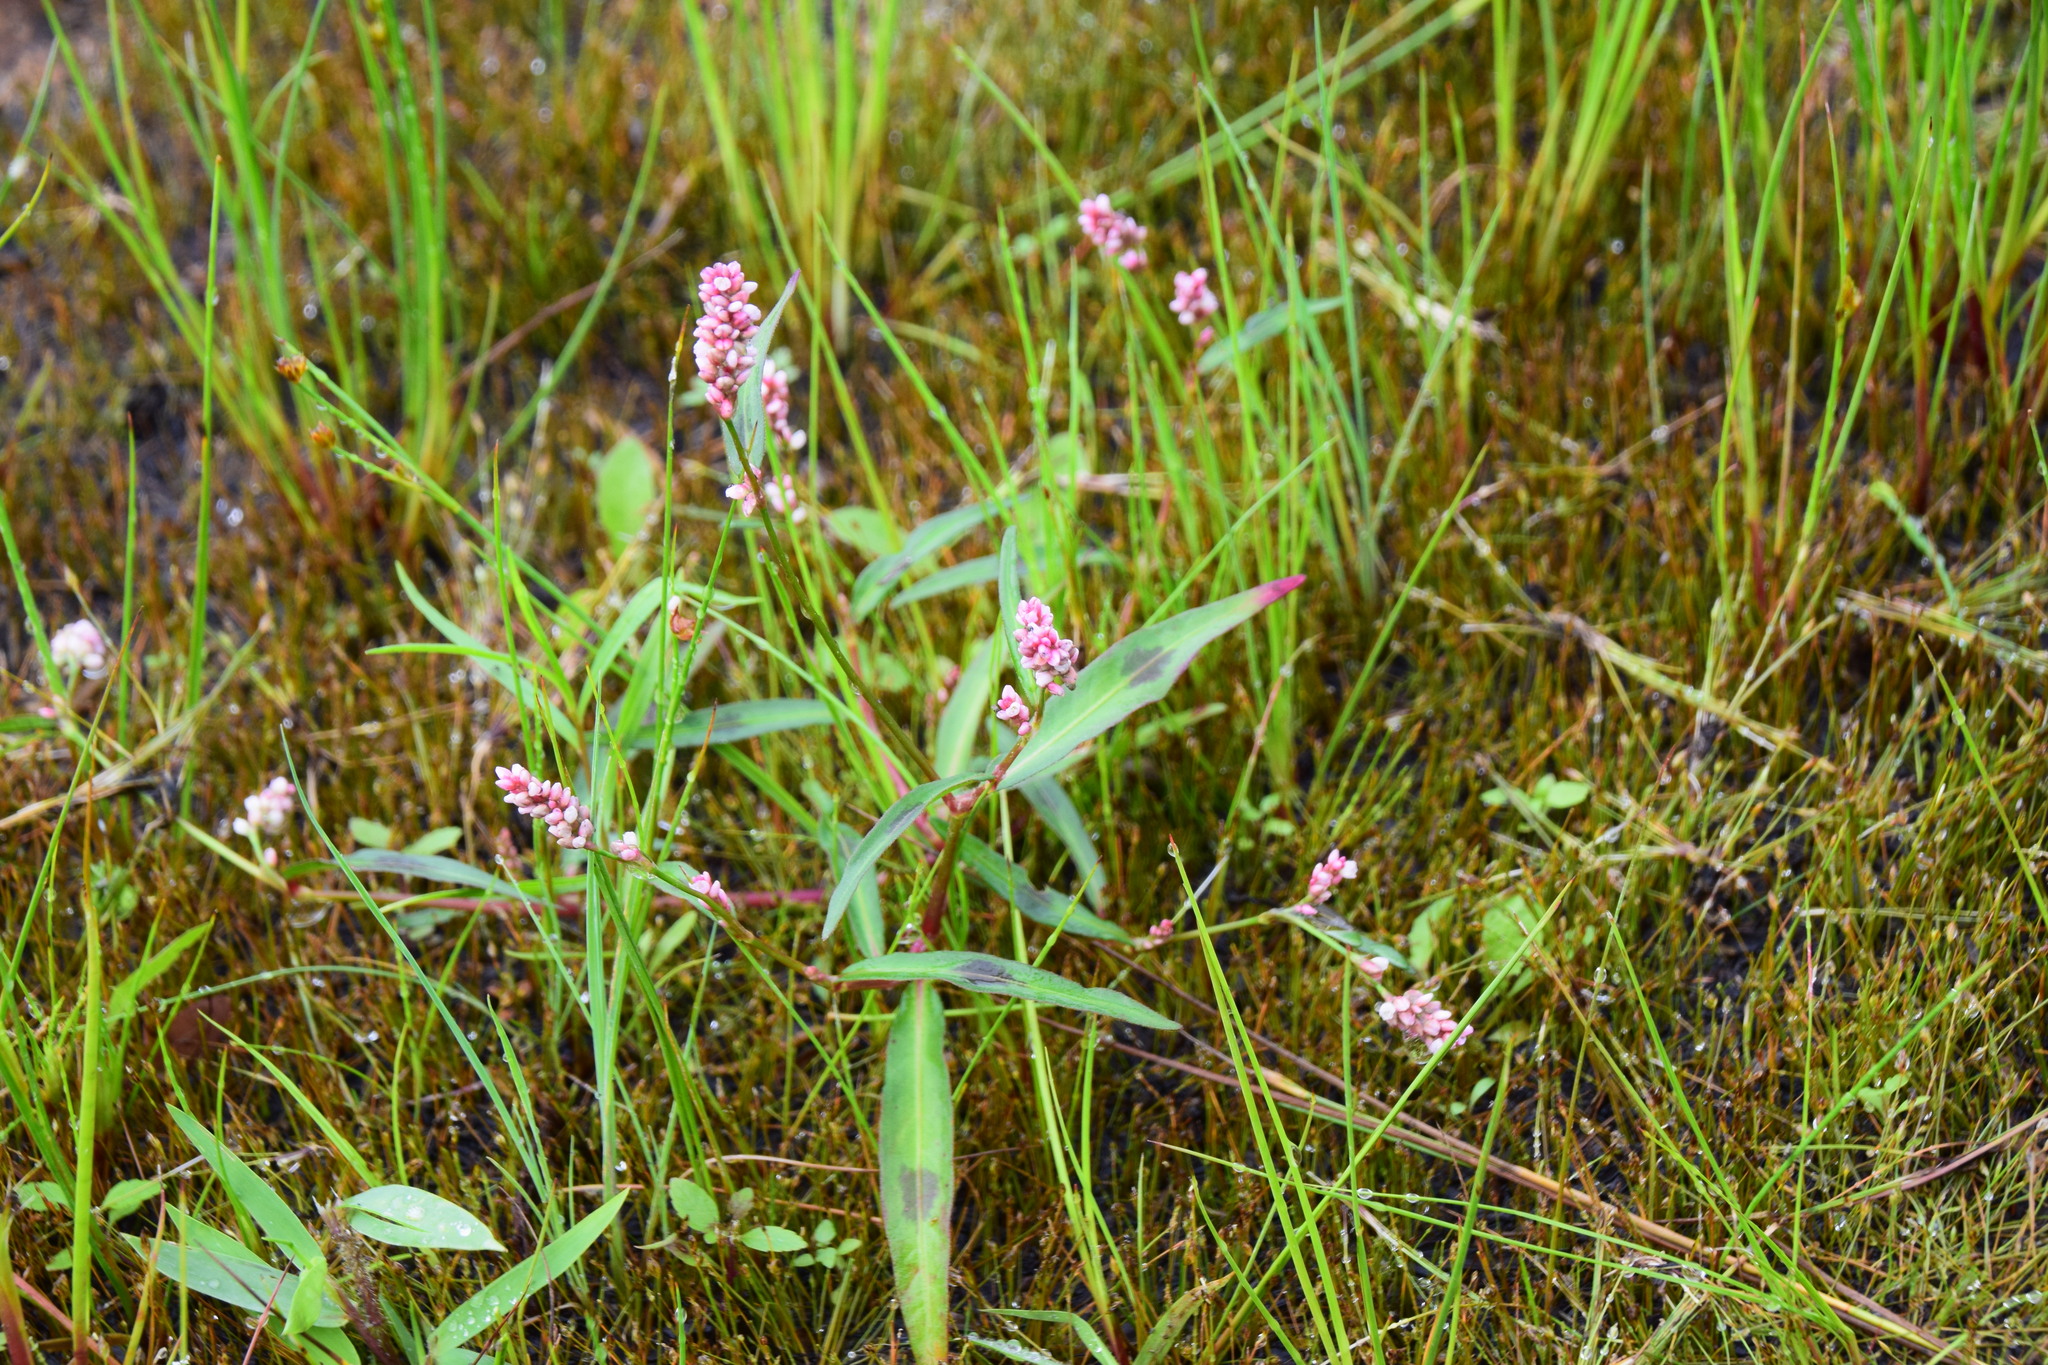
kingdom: Plantae
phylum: Tracheophyta
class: Magnoliopsida
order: Caryophyllales
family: Polygonaceae
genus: Persicaria
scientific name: Persicaria maculosa
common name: Redshank
